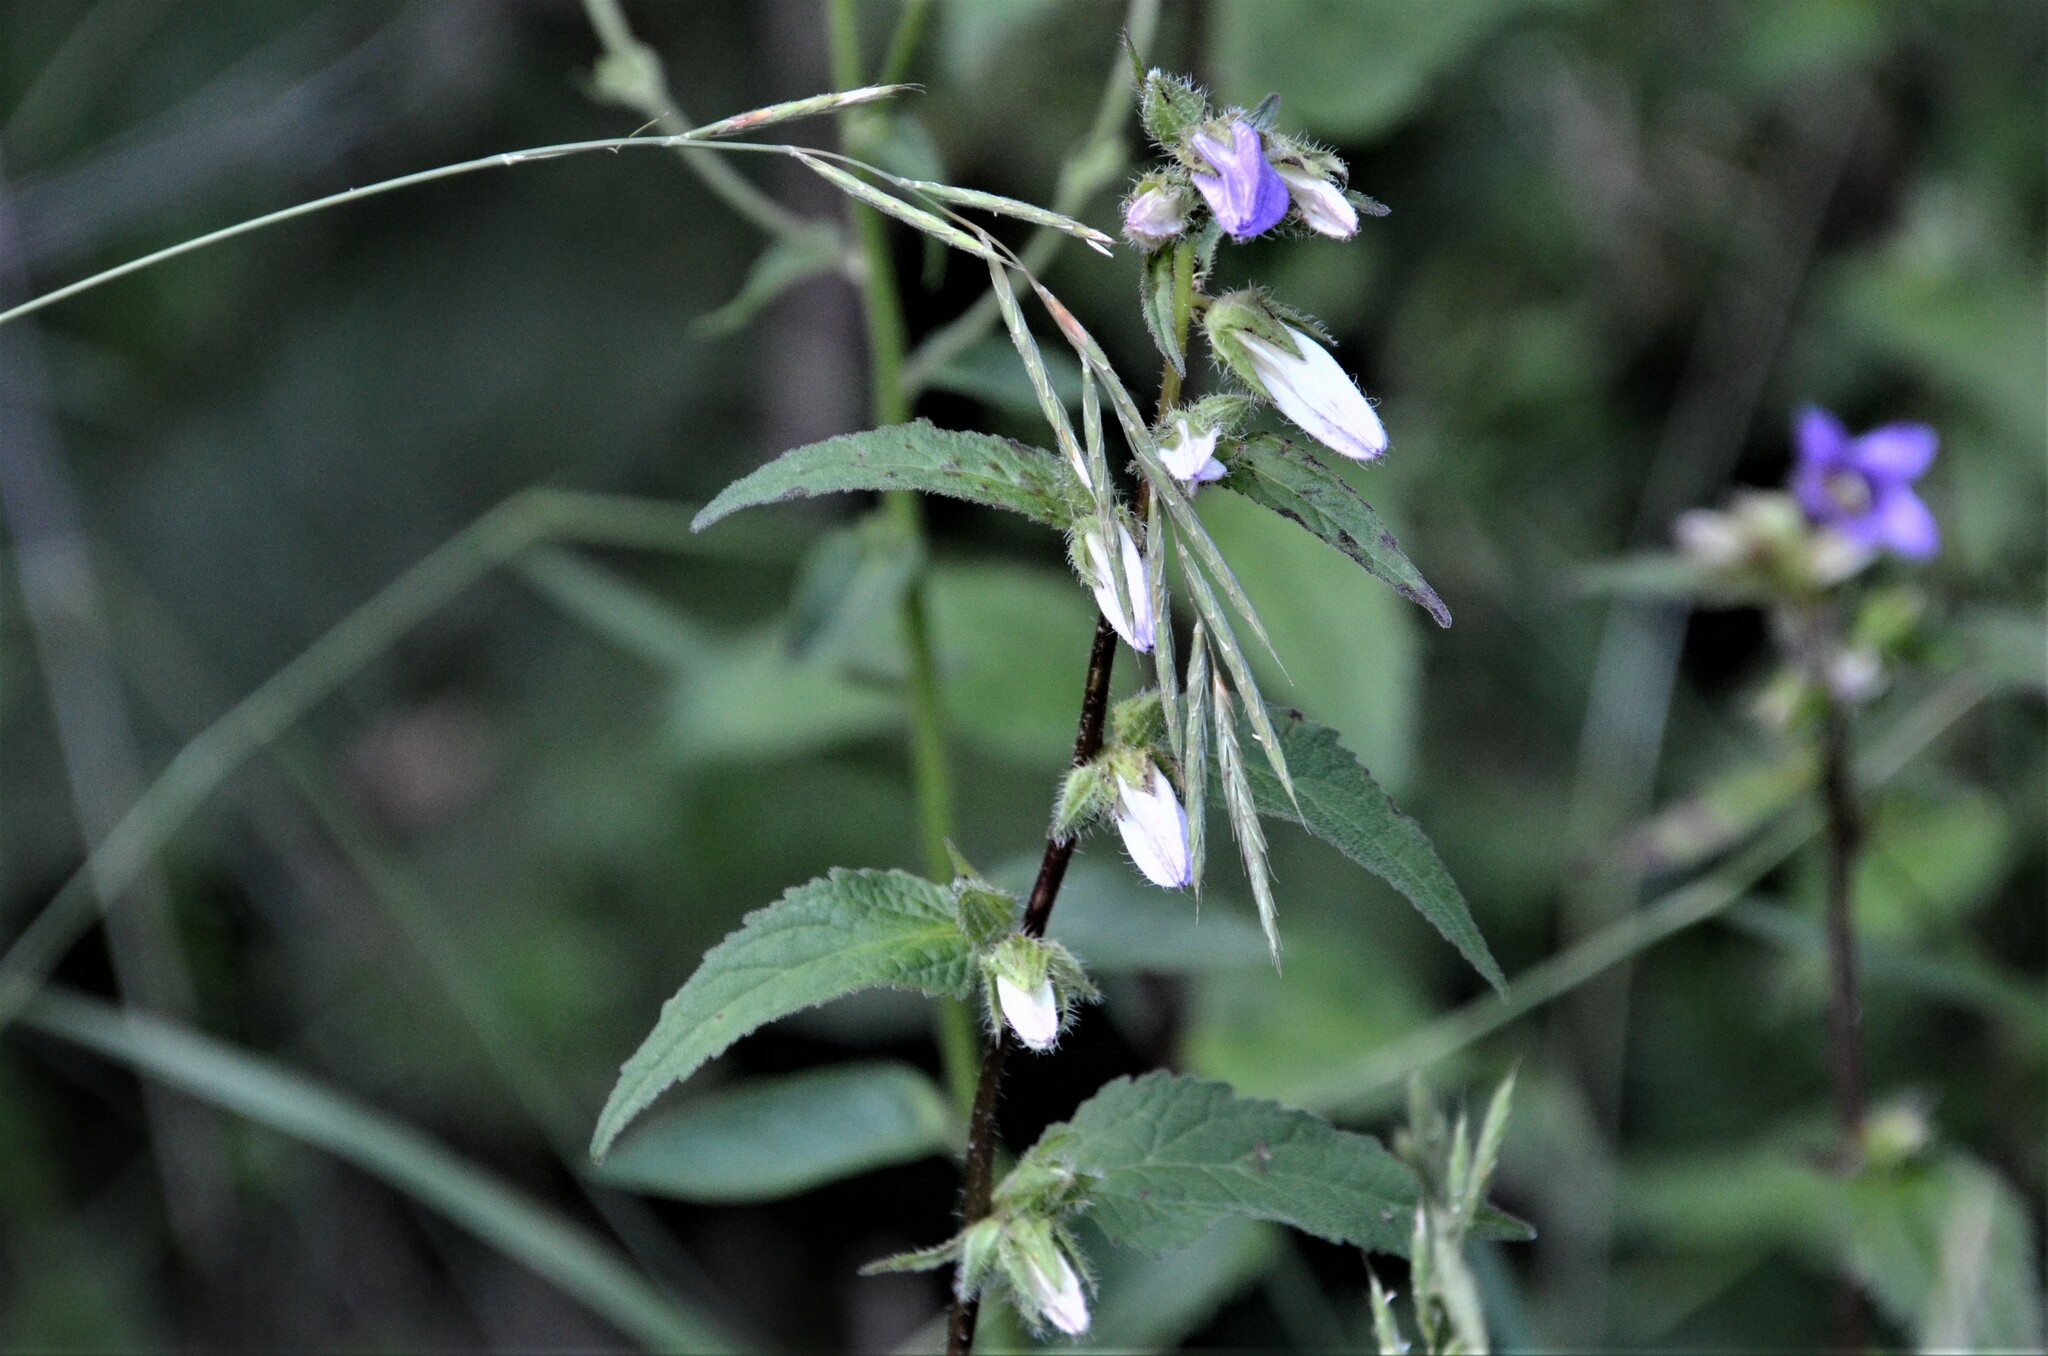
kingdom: Plantae
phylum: Tracheophyta
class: Magnoliopsida
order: Asterales
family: Campanulaceae
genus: Campanula
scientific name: Campanula trachelium
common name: Nettle-leaved bellflower
